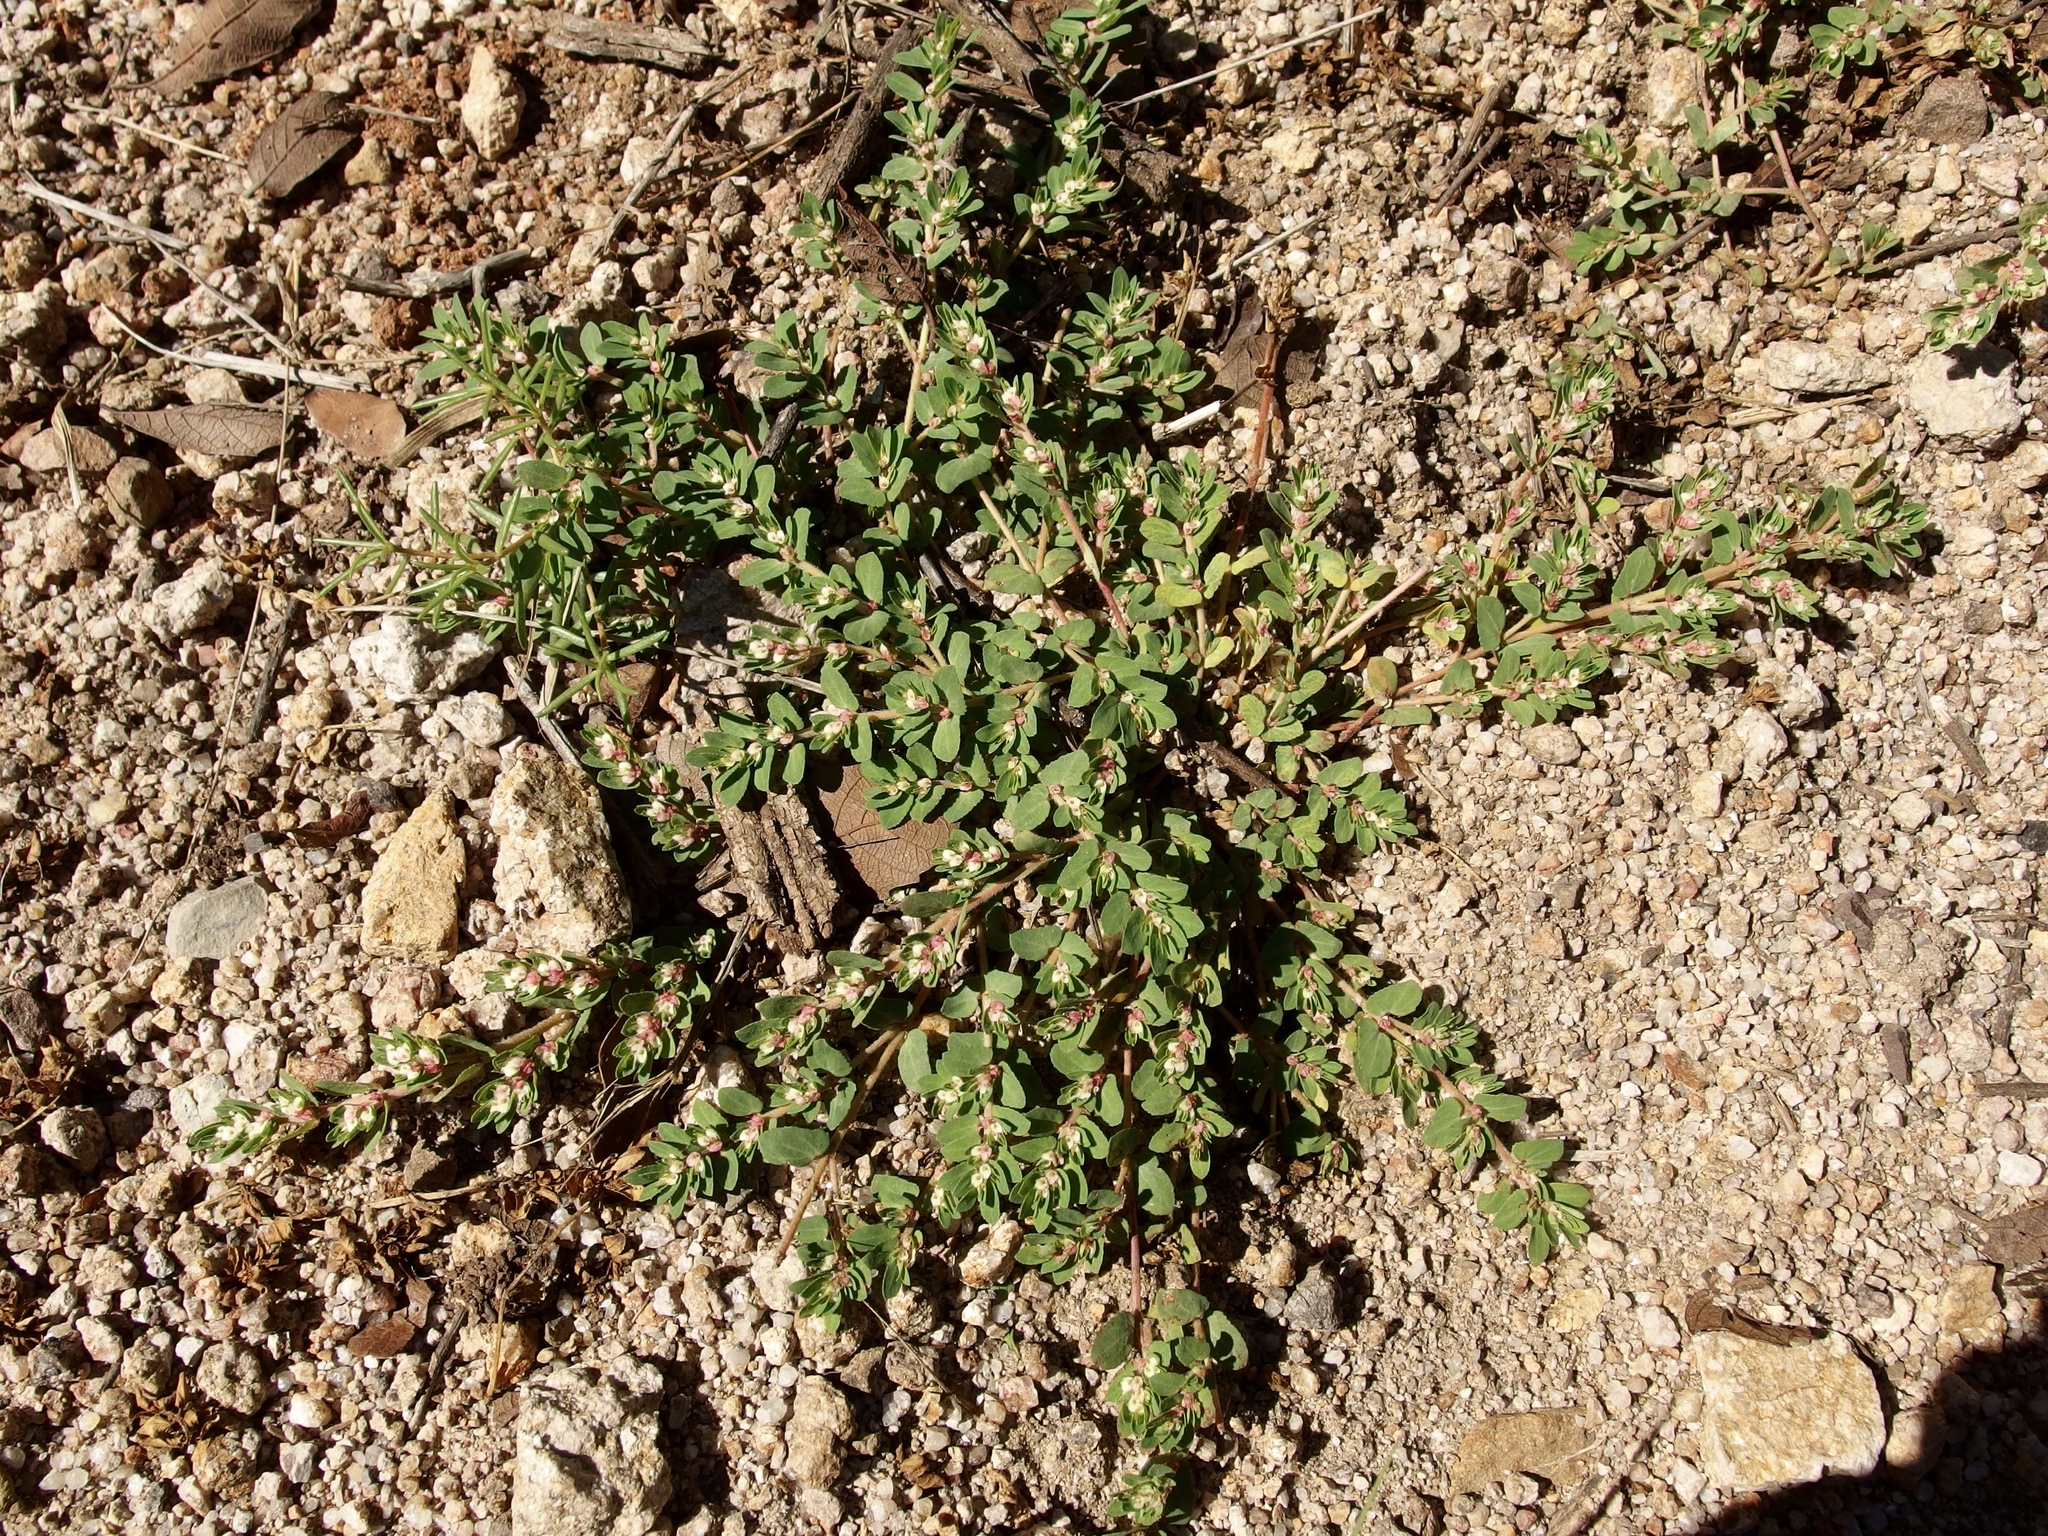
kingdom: Plantae
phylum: Tracheophyta
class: Magnoliopsida
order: Malpighiales
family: Euphorbiaceae
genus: Euphorbia
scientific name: Euphorbia indivisa
